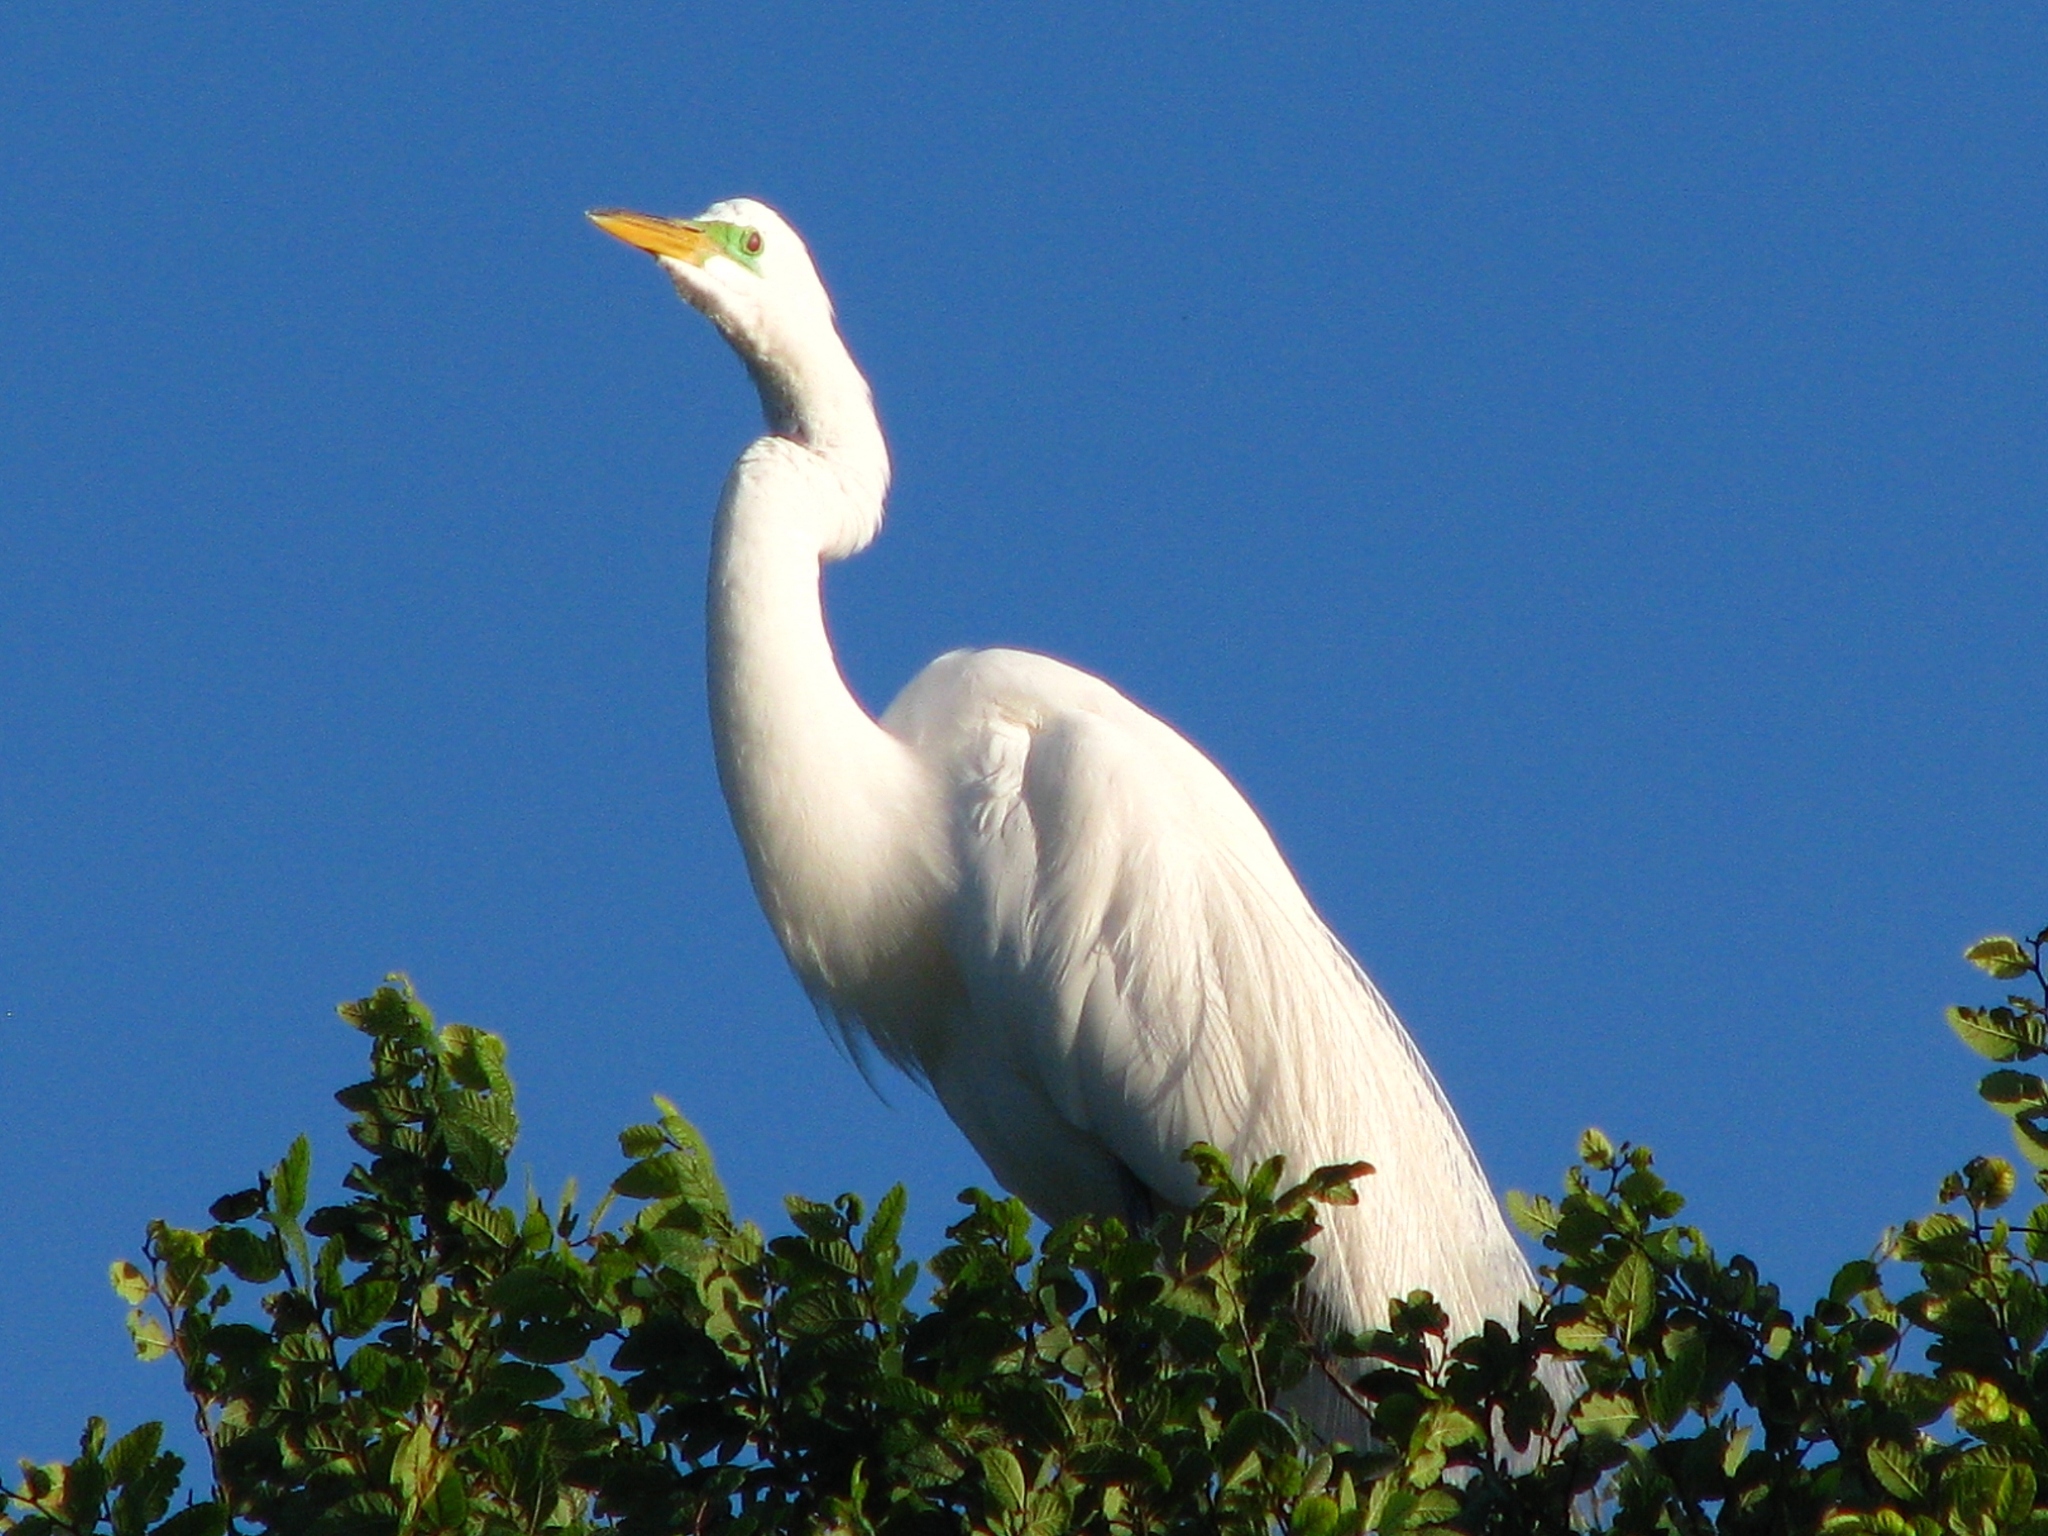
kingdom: Animalia
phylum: Chordata
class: Aves
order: Pelecaniformes
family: Ardeidae
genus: Ardea
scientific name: Ardea alba
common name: Great egret
